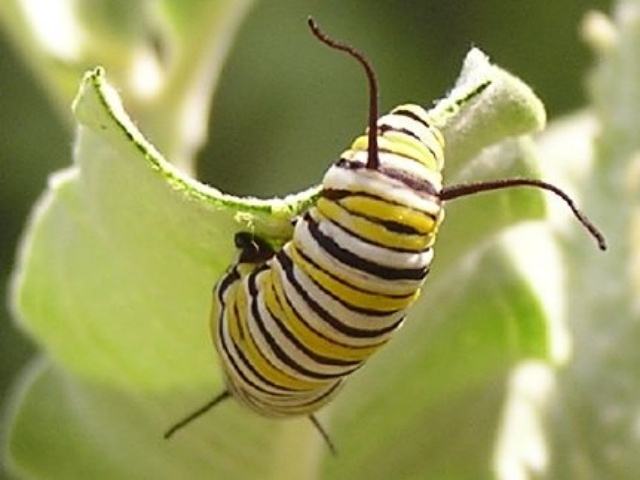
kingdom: Animalia
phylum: Arthropoda
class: Insecta
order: Lepidoptera
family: Nymphalidae
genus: Danaus
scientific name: Danaus plexippus
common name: Monarch
